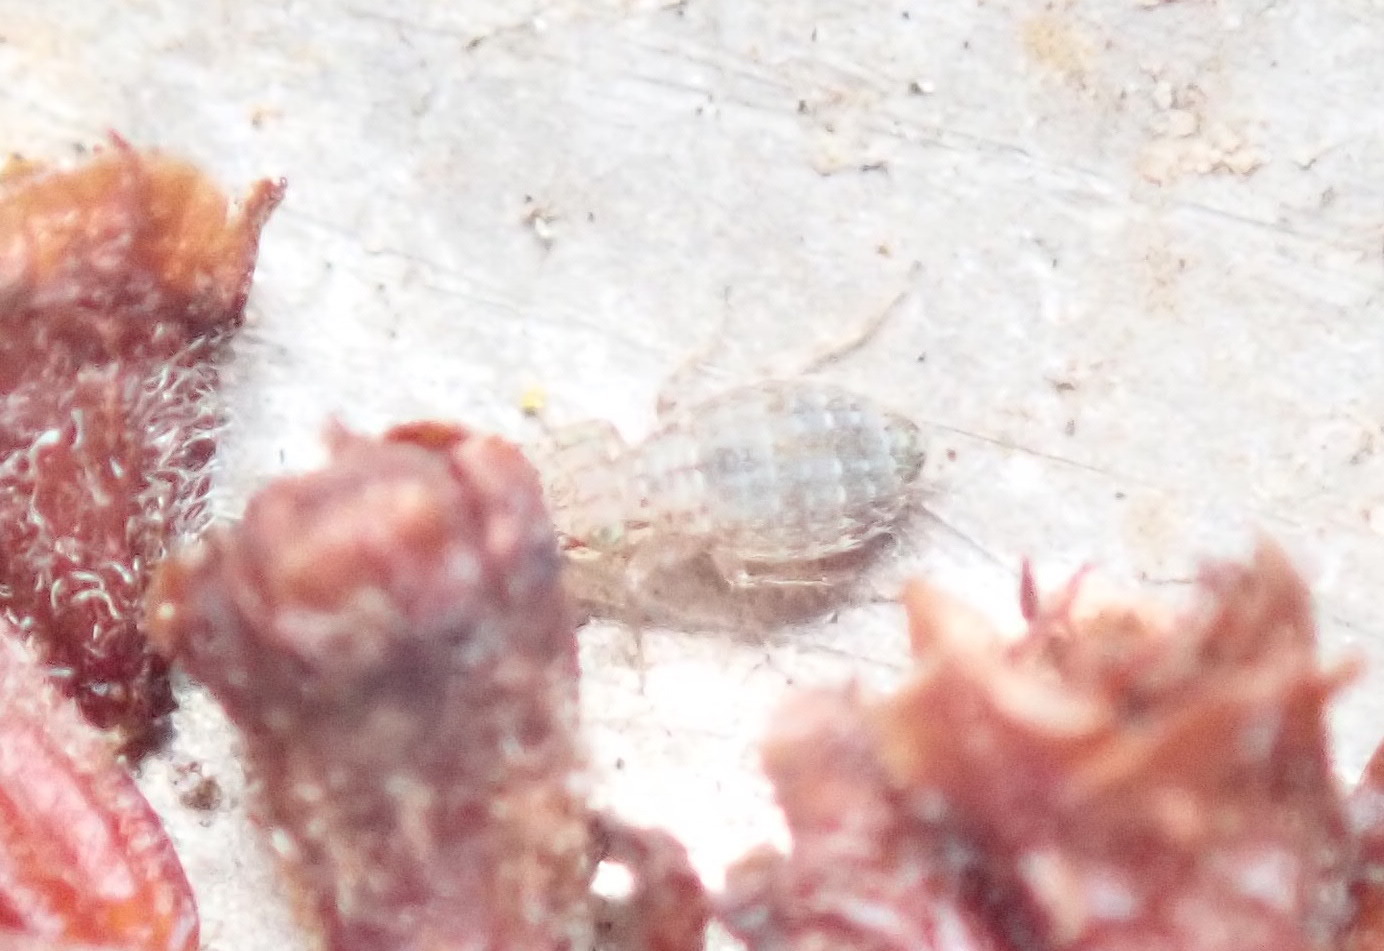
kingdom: Animalia
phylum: Arthropoda
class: Insecta
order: Psocodea
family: Trogiidae
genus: Cerobasis
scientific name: Cerobasis guestfalica
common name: Book lice
